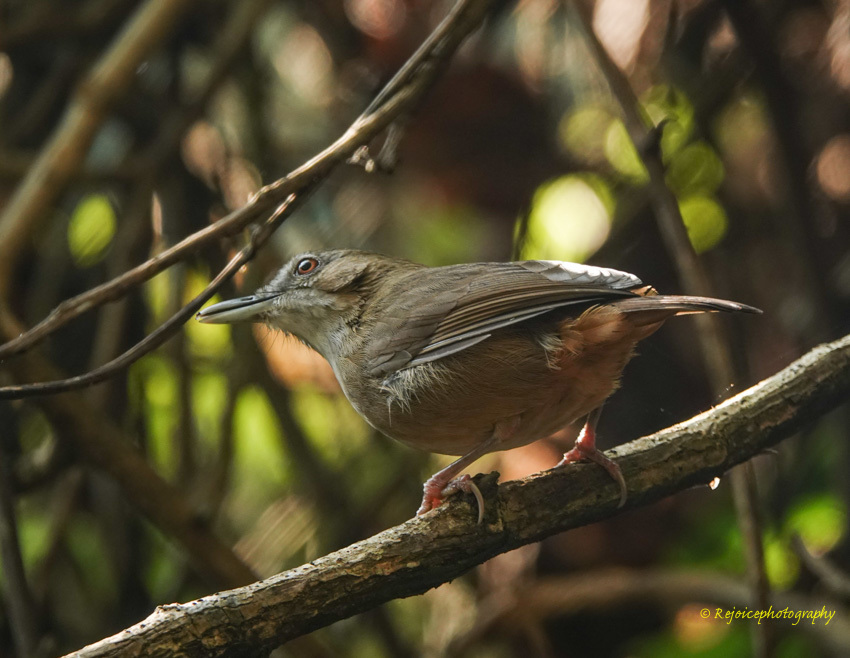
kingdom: Animalia
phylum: Chordata
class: Aves
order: Passeriformes
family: Pellorneidae
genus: Malacocincla
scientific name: Malacocincla abbotti
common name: Abbott's babbler
